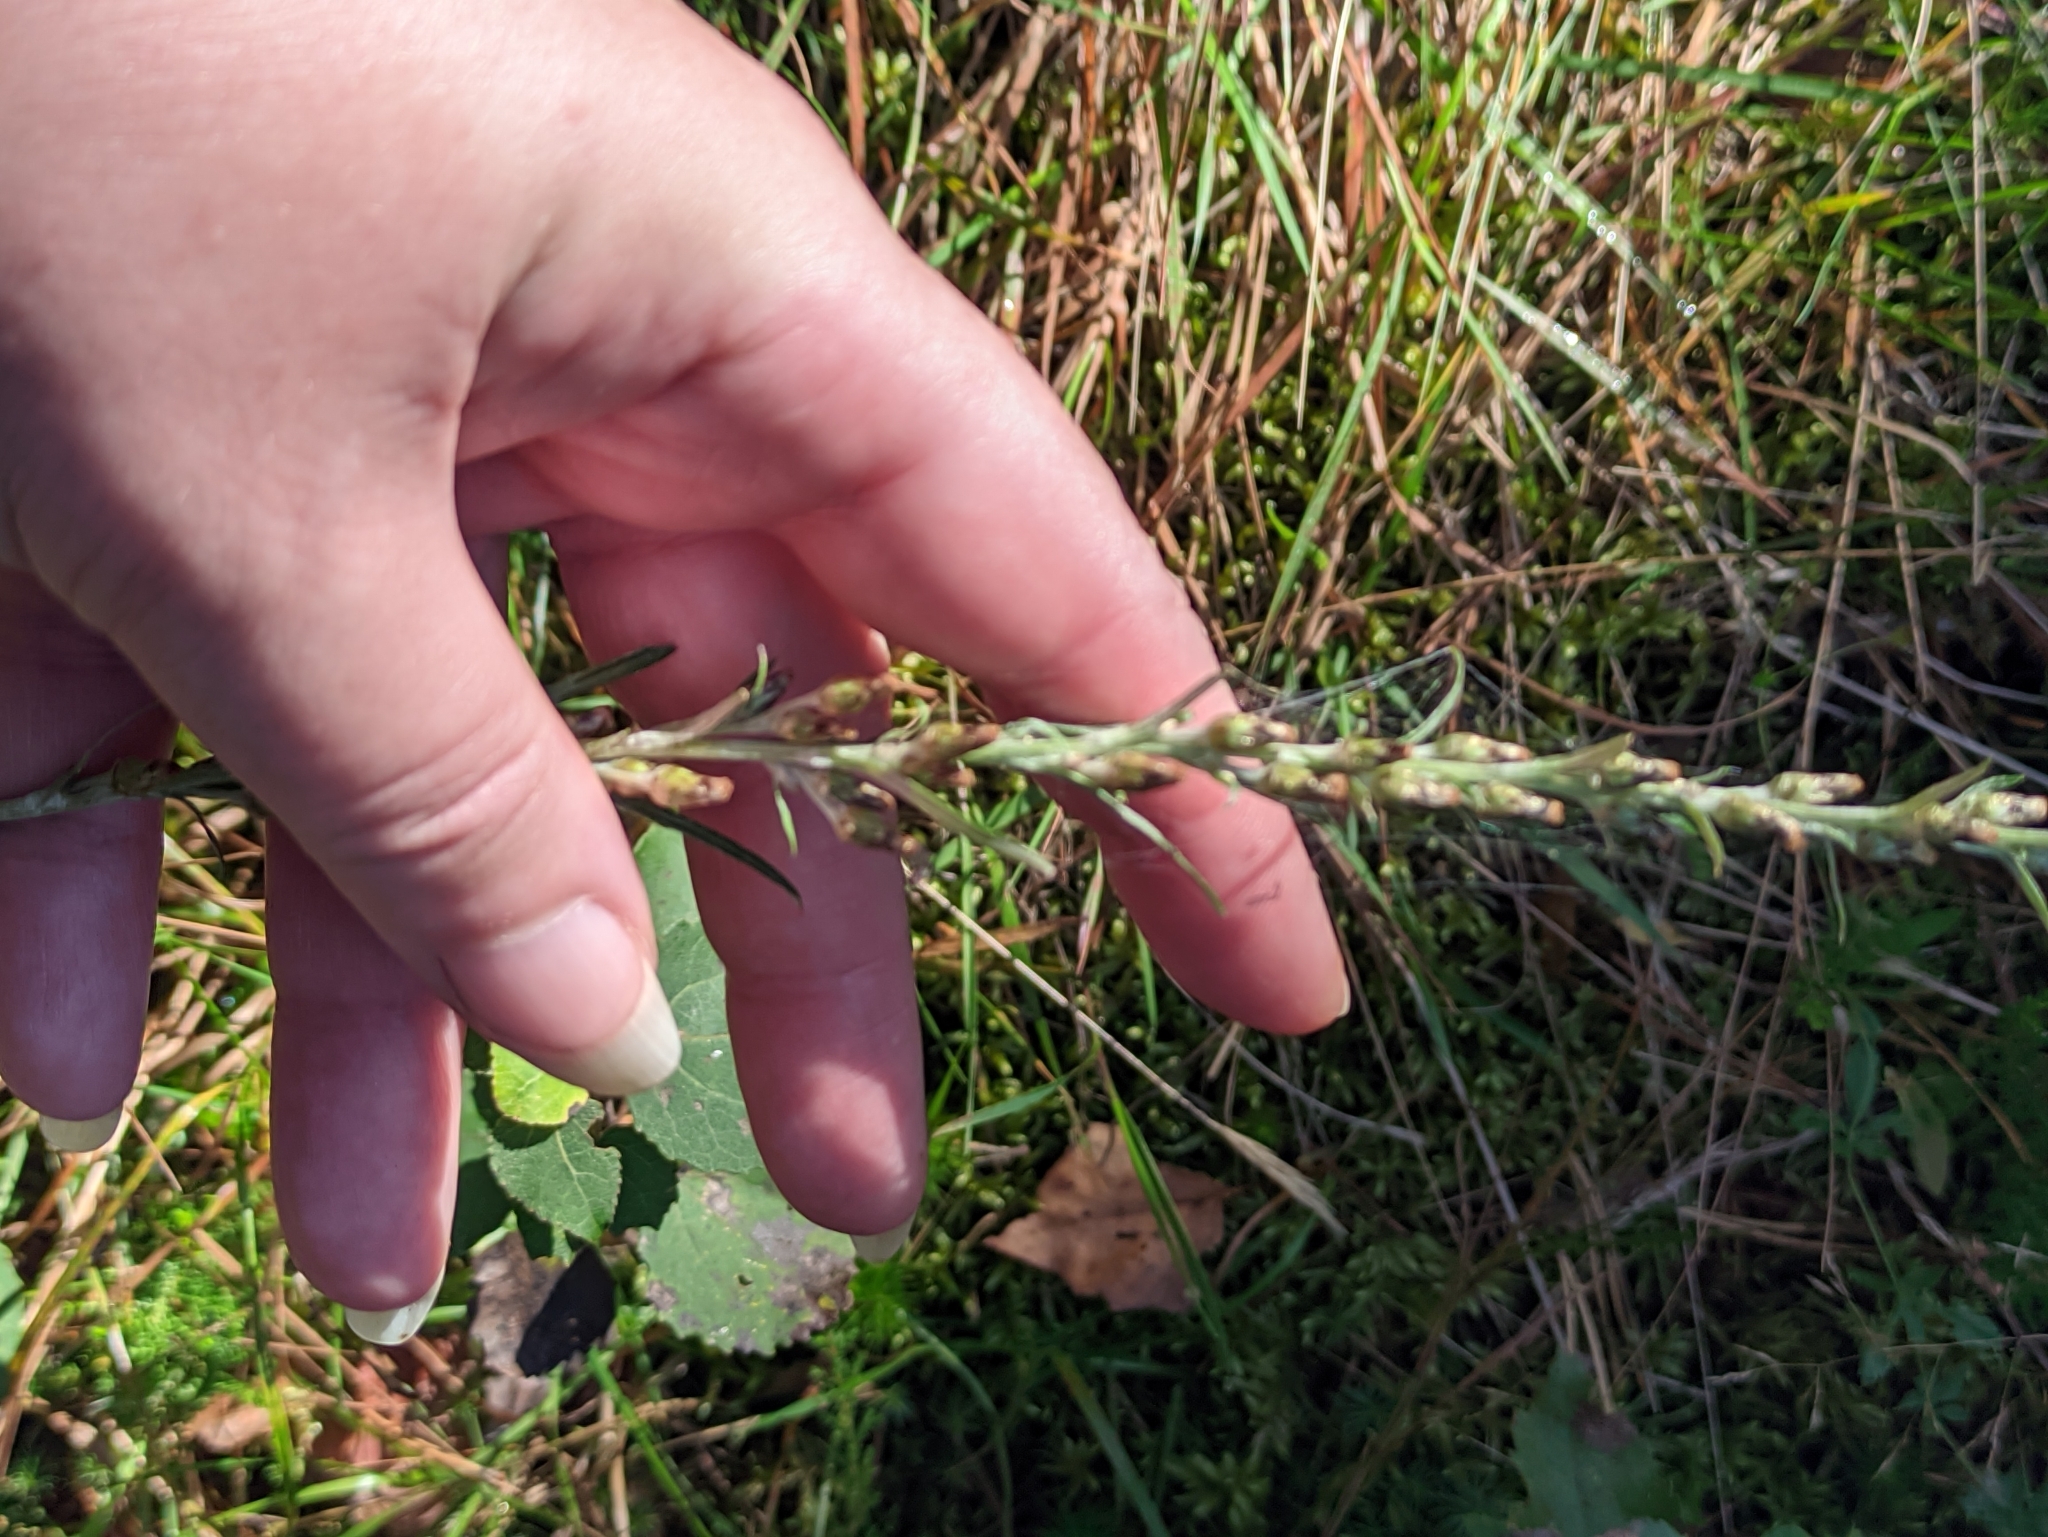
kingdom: Plantae
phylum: Tracheophyta
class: Magnoliopsida
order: Asterales
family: Asteraceae
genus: Omalotheca
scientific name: Omalotheca sylvatica
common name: Heath cudweed
